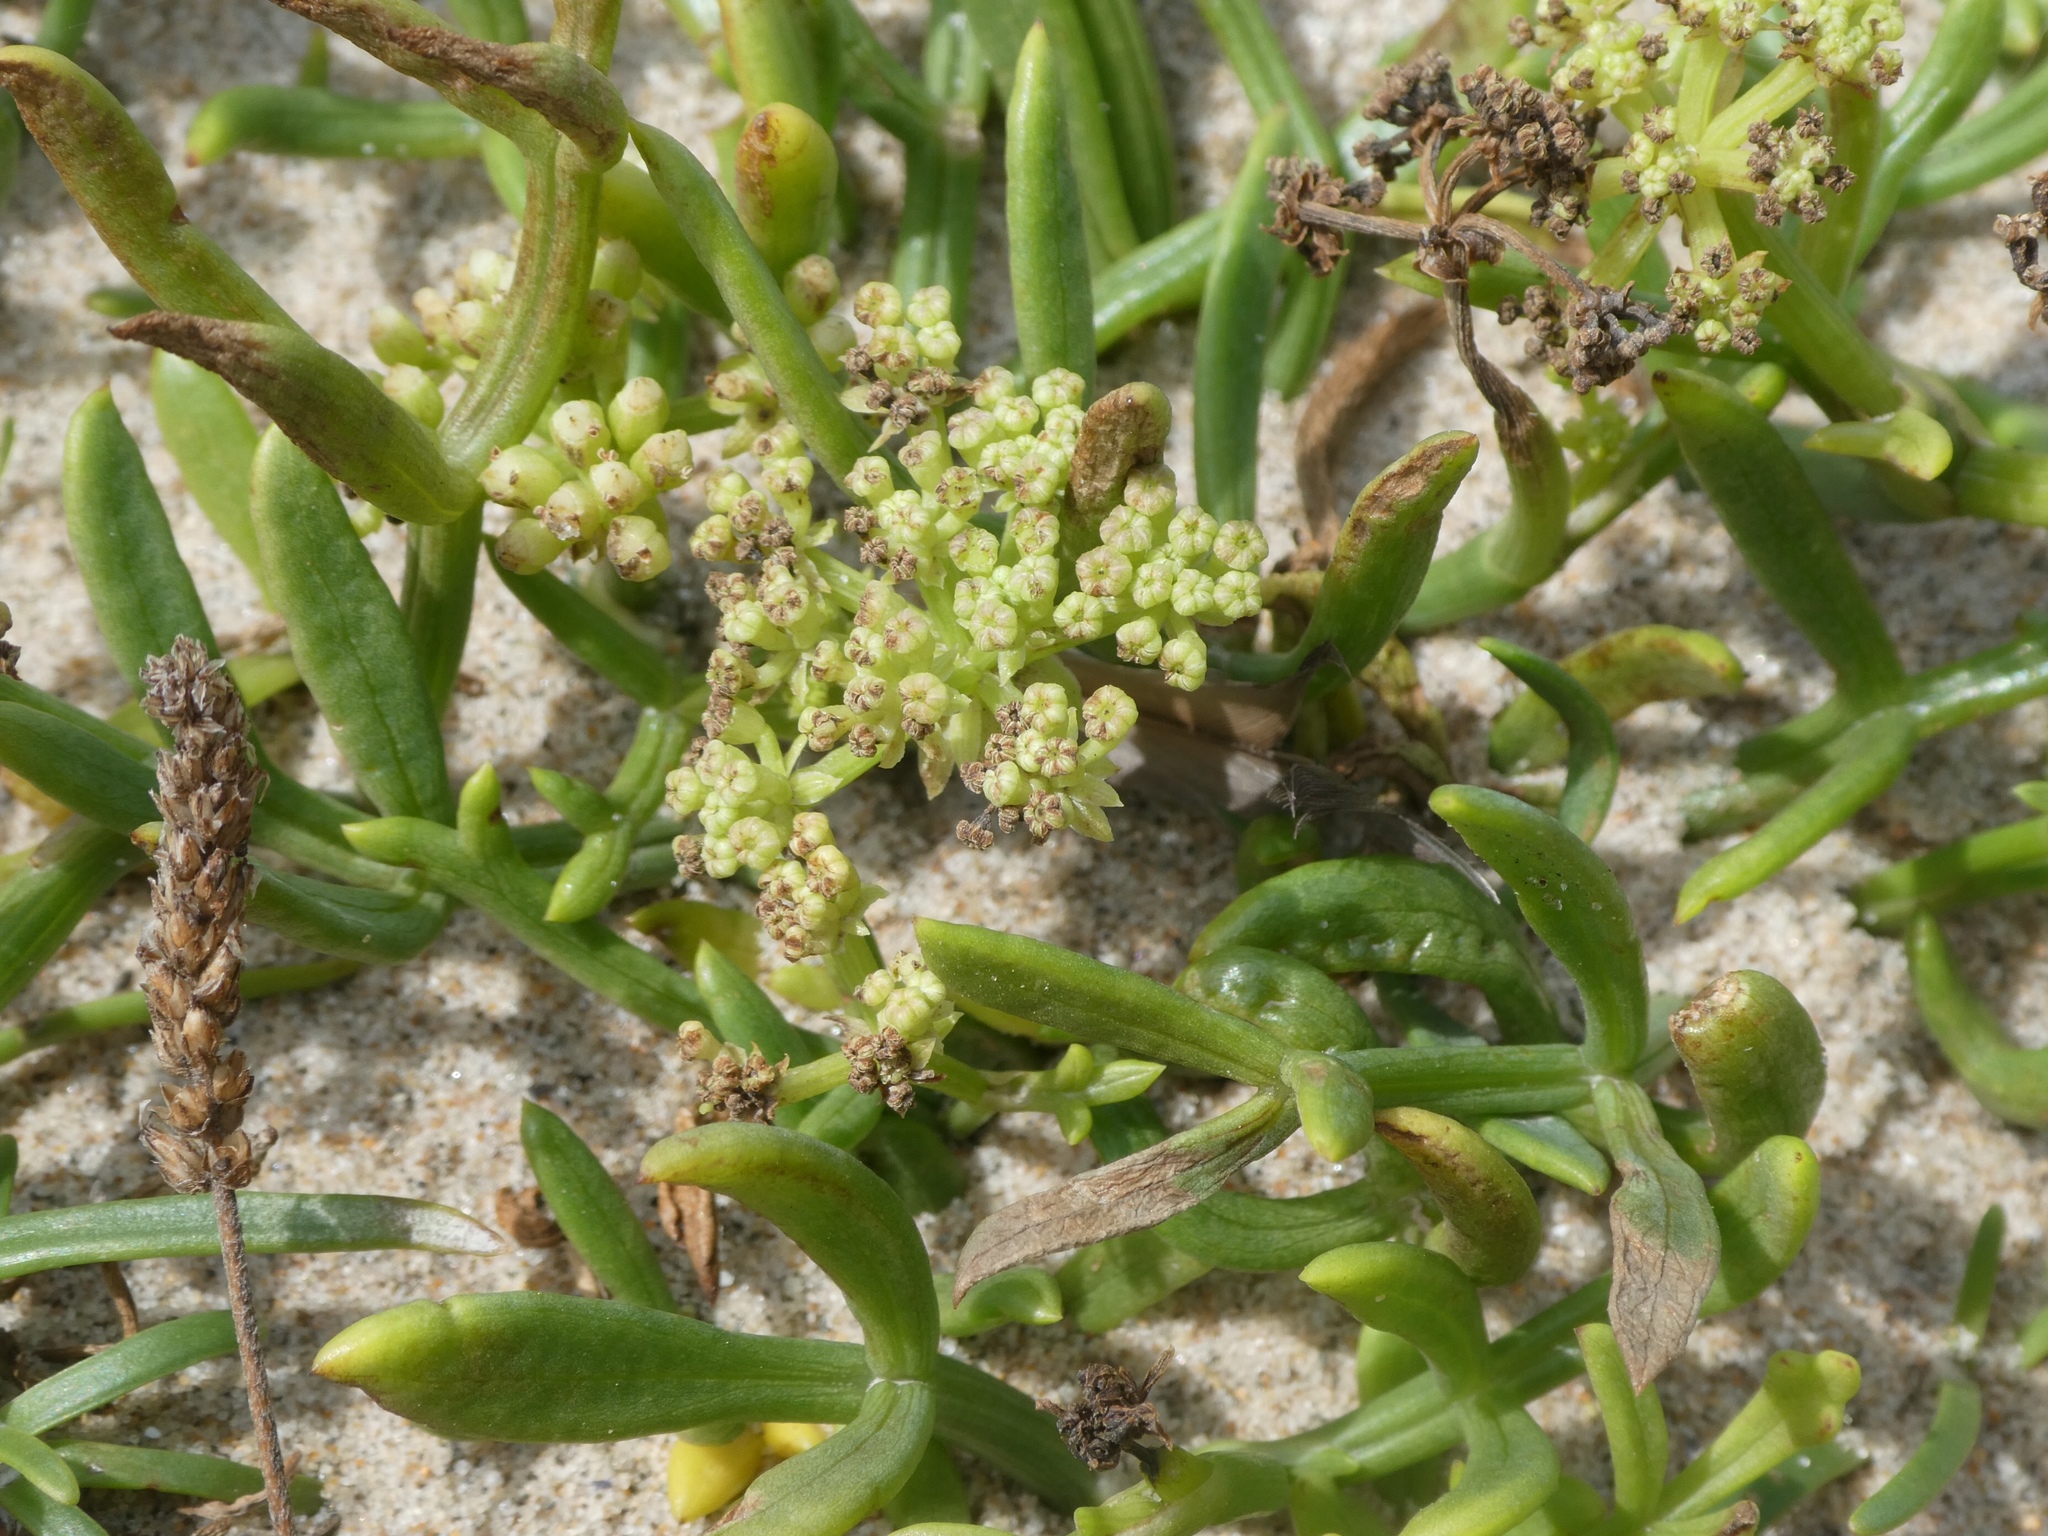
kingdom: Plantae
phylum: Tracheophyta
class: Magnoliopsida
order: Apiales
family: Apiaceae
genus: Crithmum
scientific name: Crithmum maritimum
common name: Rock samphire
